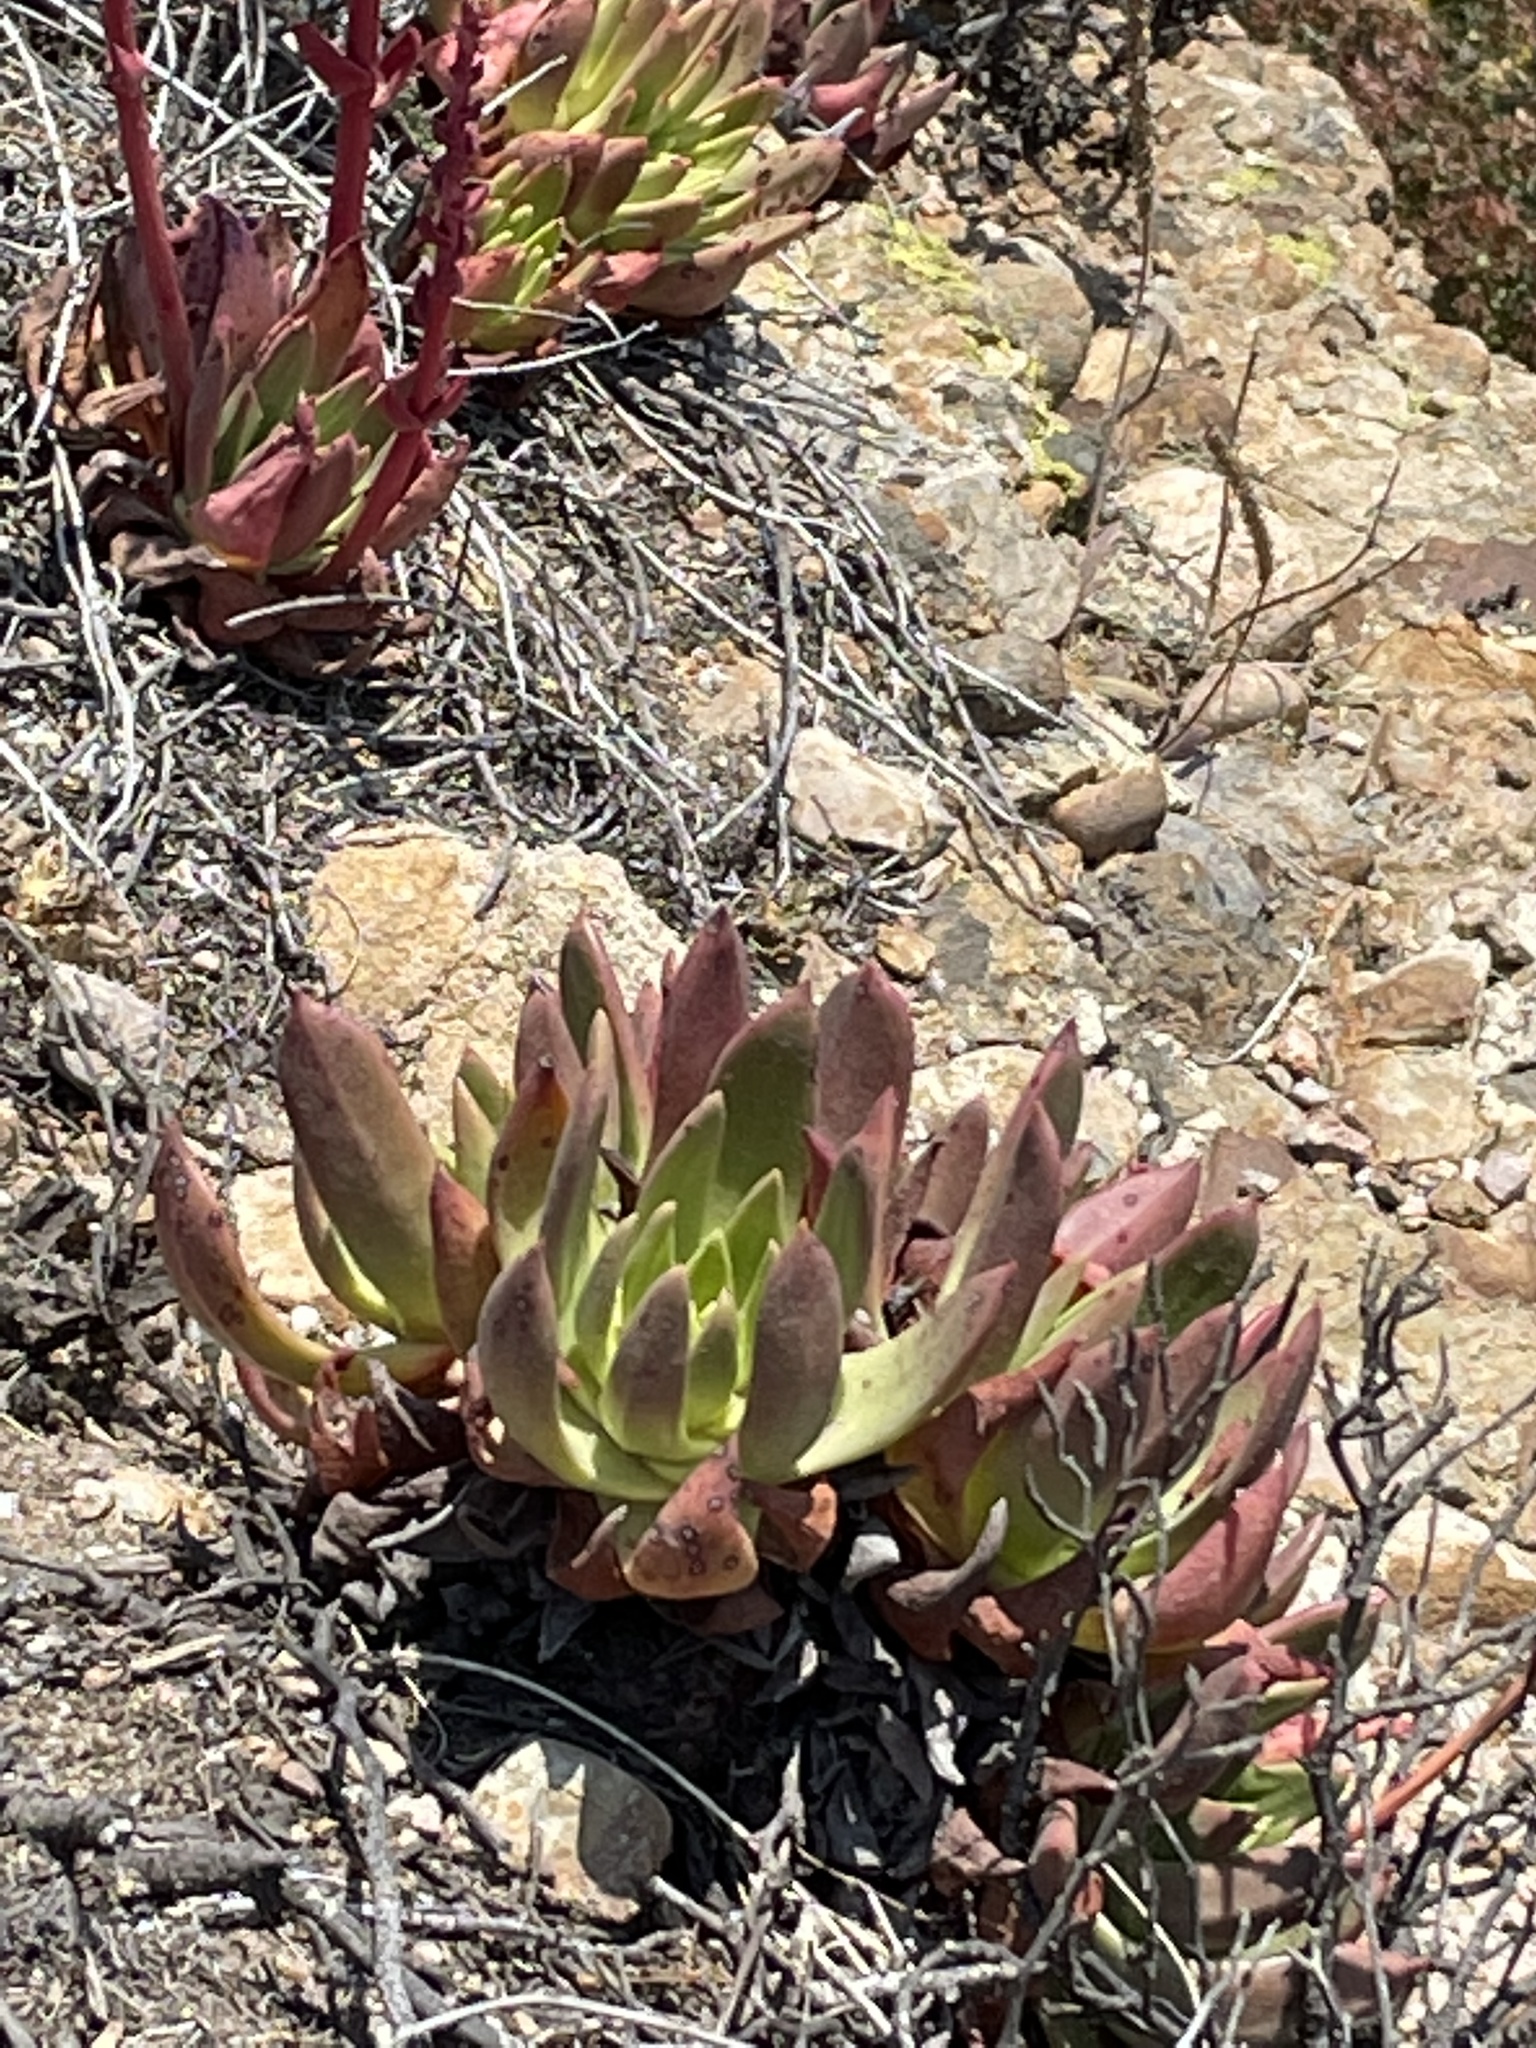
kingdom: Plantae
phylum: Tracheophyta
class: Magnoliopsida
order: Saxifragales
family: Crassulaceae
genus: Dudleya
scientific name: Dudleya caespitosa
